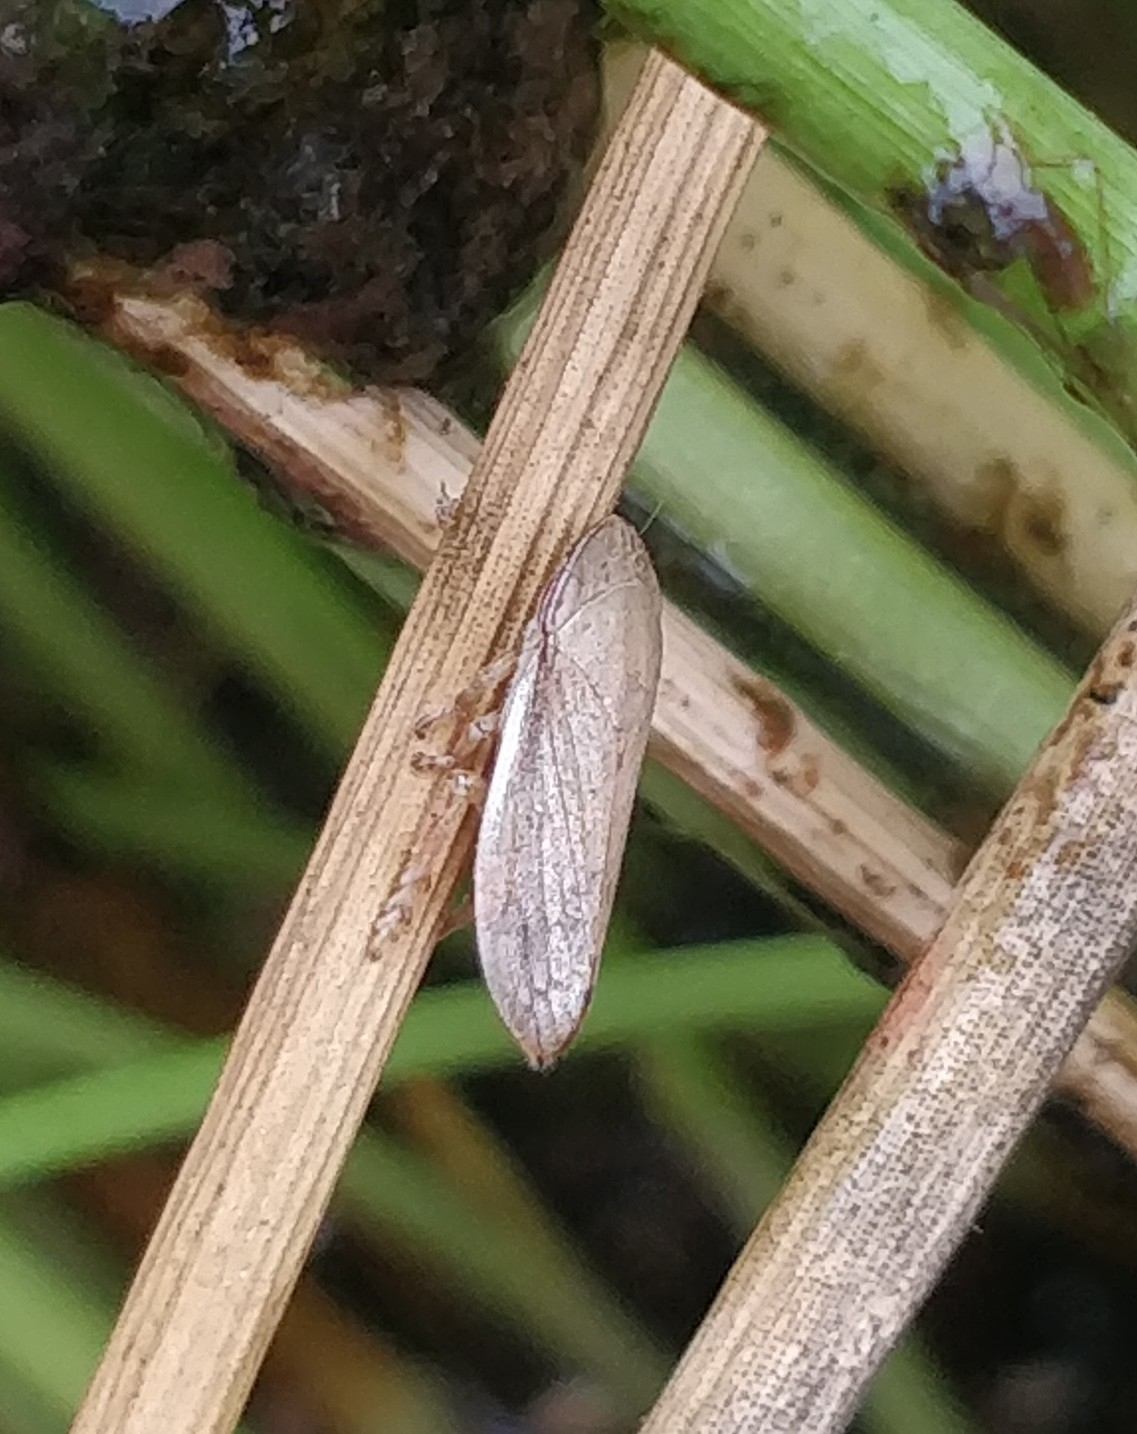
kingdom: Animalia
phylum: Arthropoda
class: Insecta
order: Hemiptera
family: Aphrophoridae
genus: Neophilaenus
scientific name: Neophilaenus angustipennis
